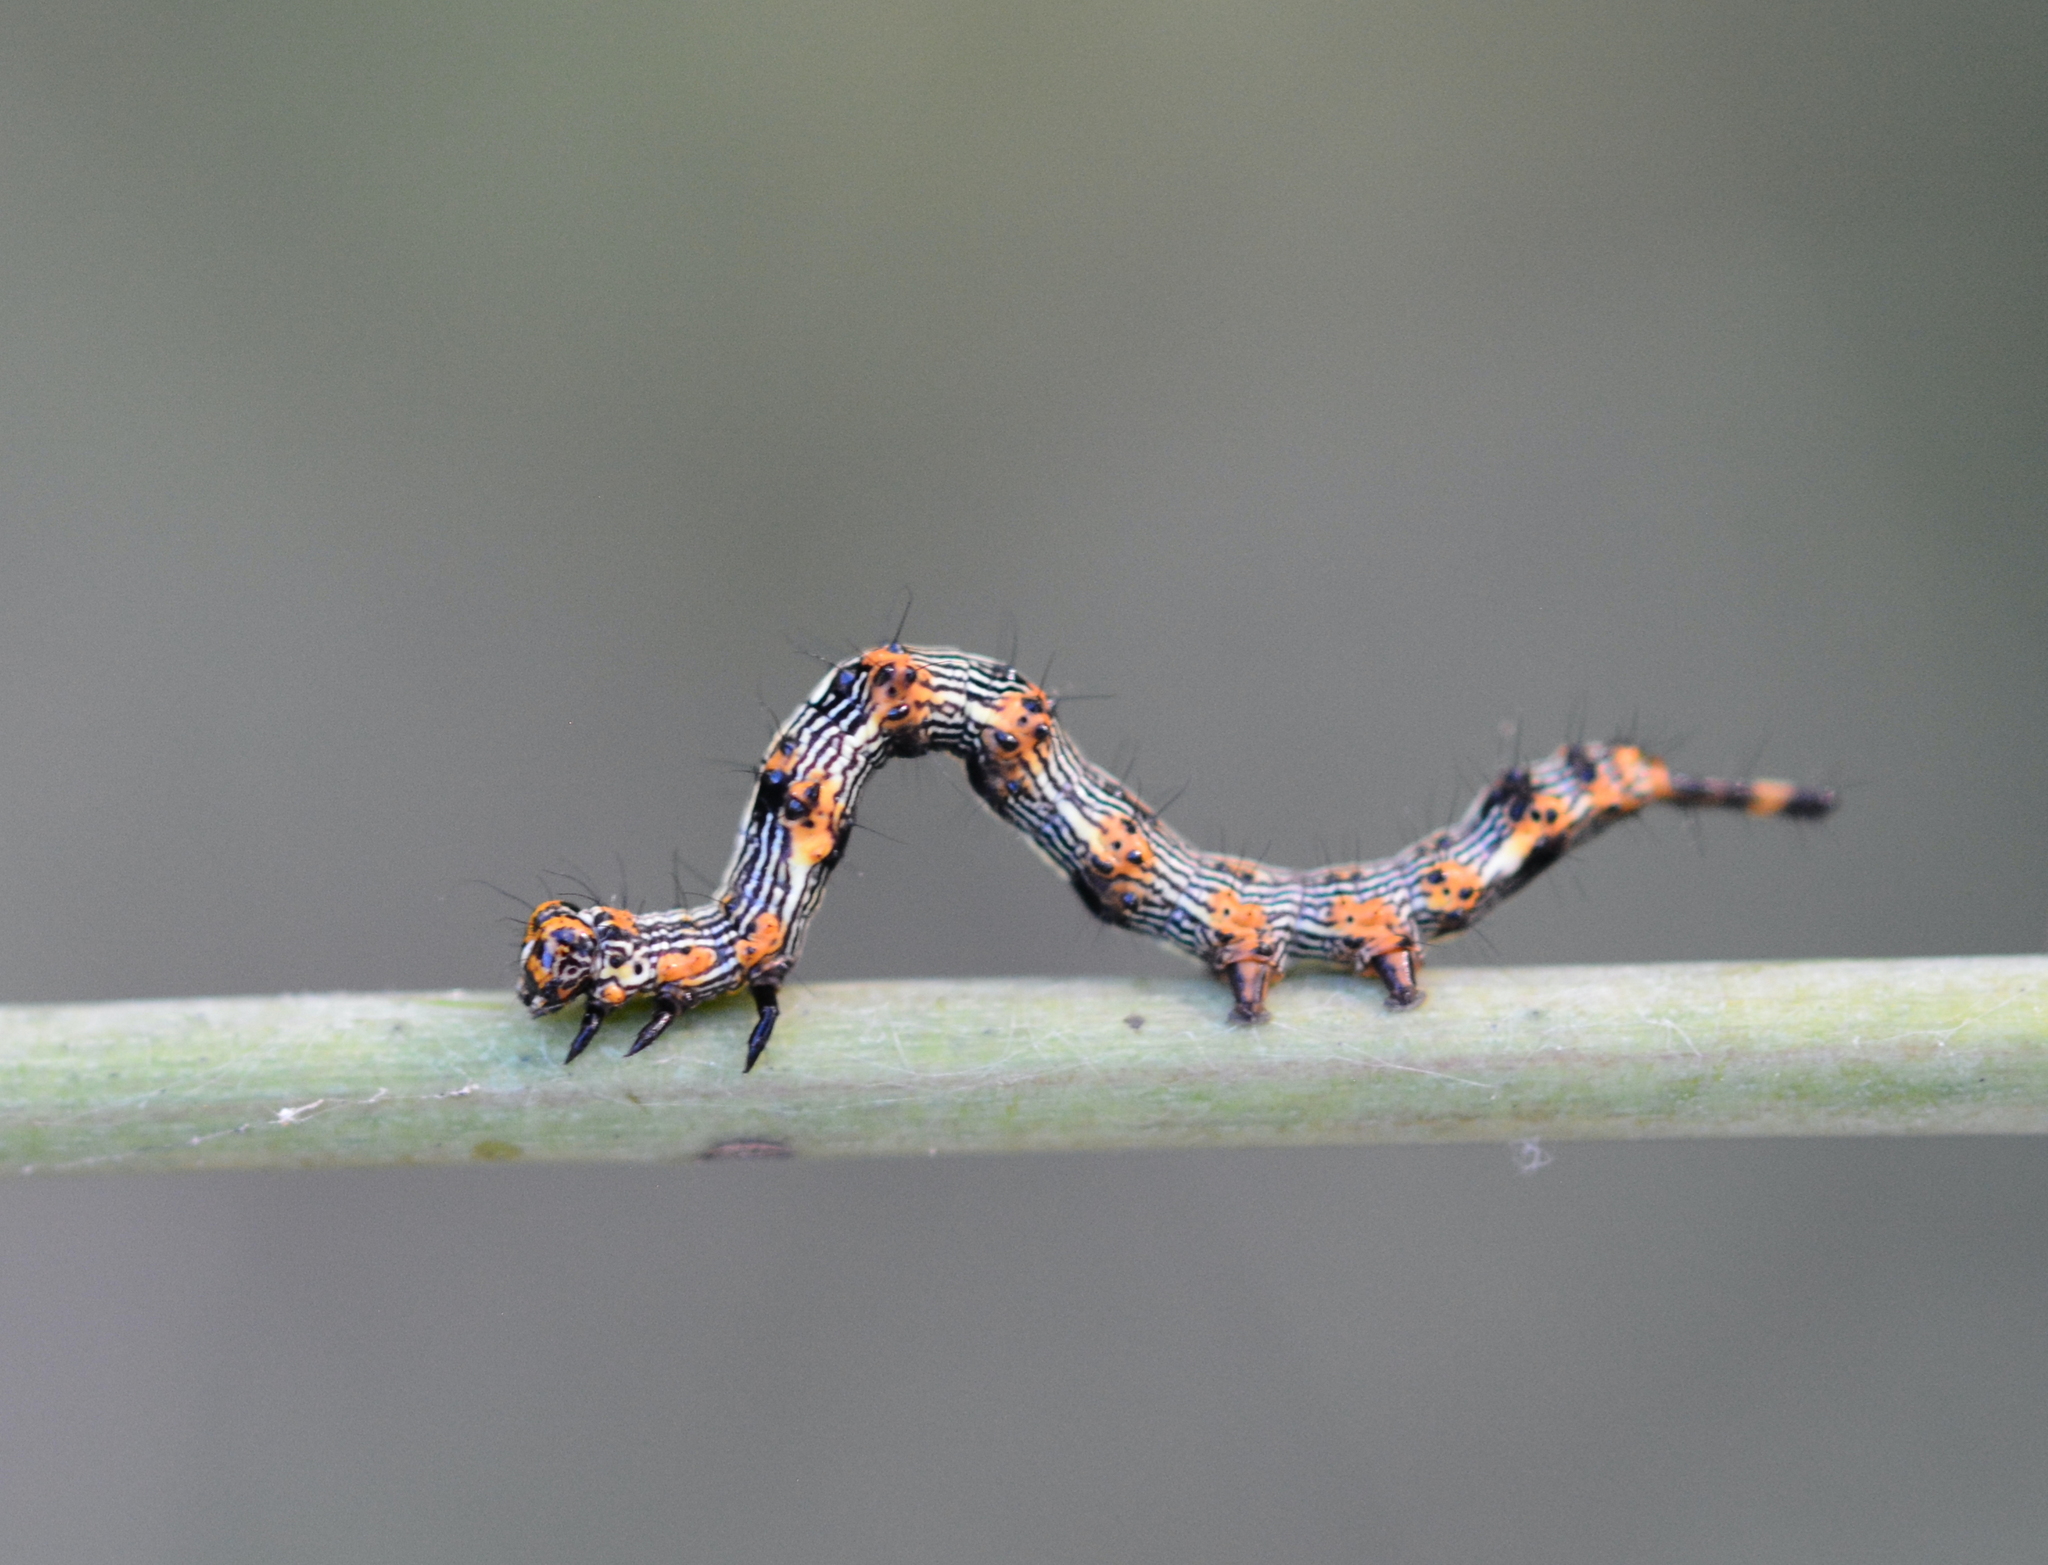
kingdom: Animalia
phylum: Arthropoda
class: Insecta
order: Lepidoptera
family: Erebidae
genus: Selenisa
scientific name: Selenisa sueroides
